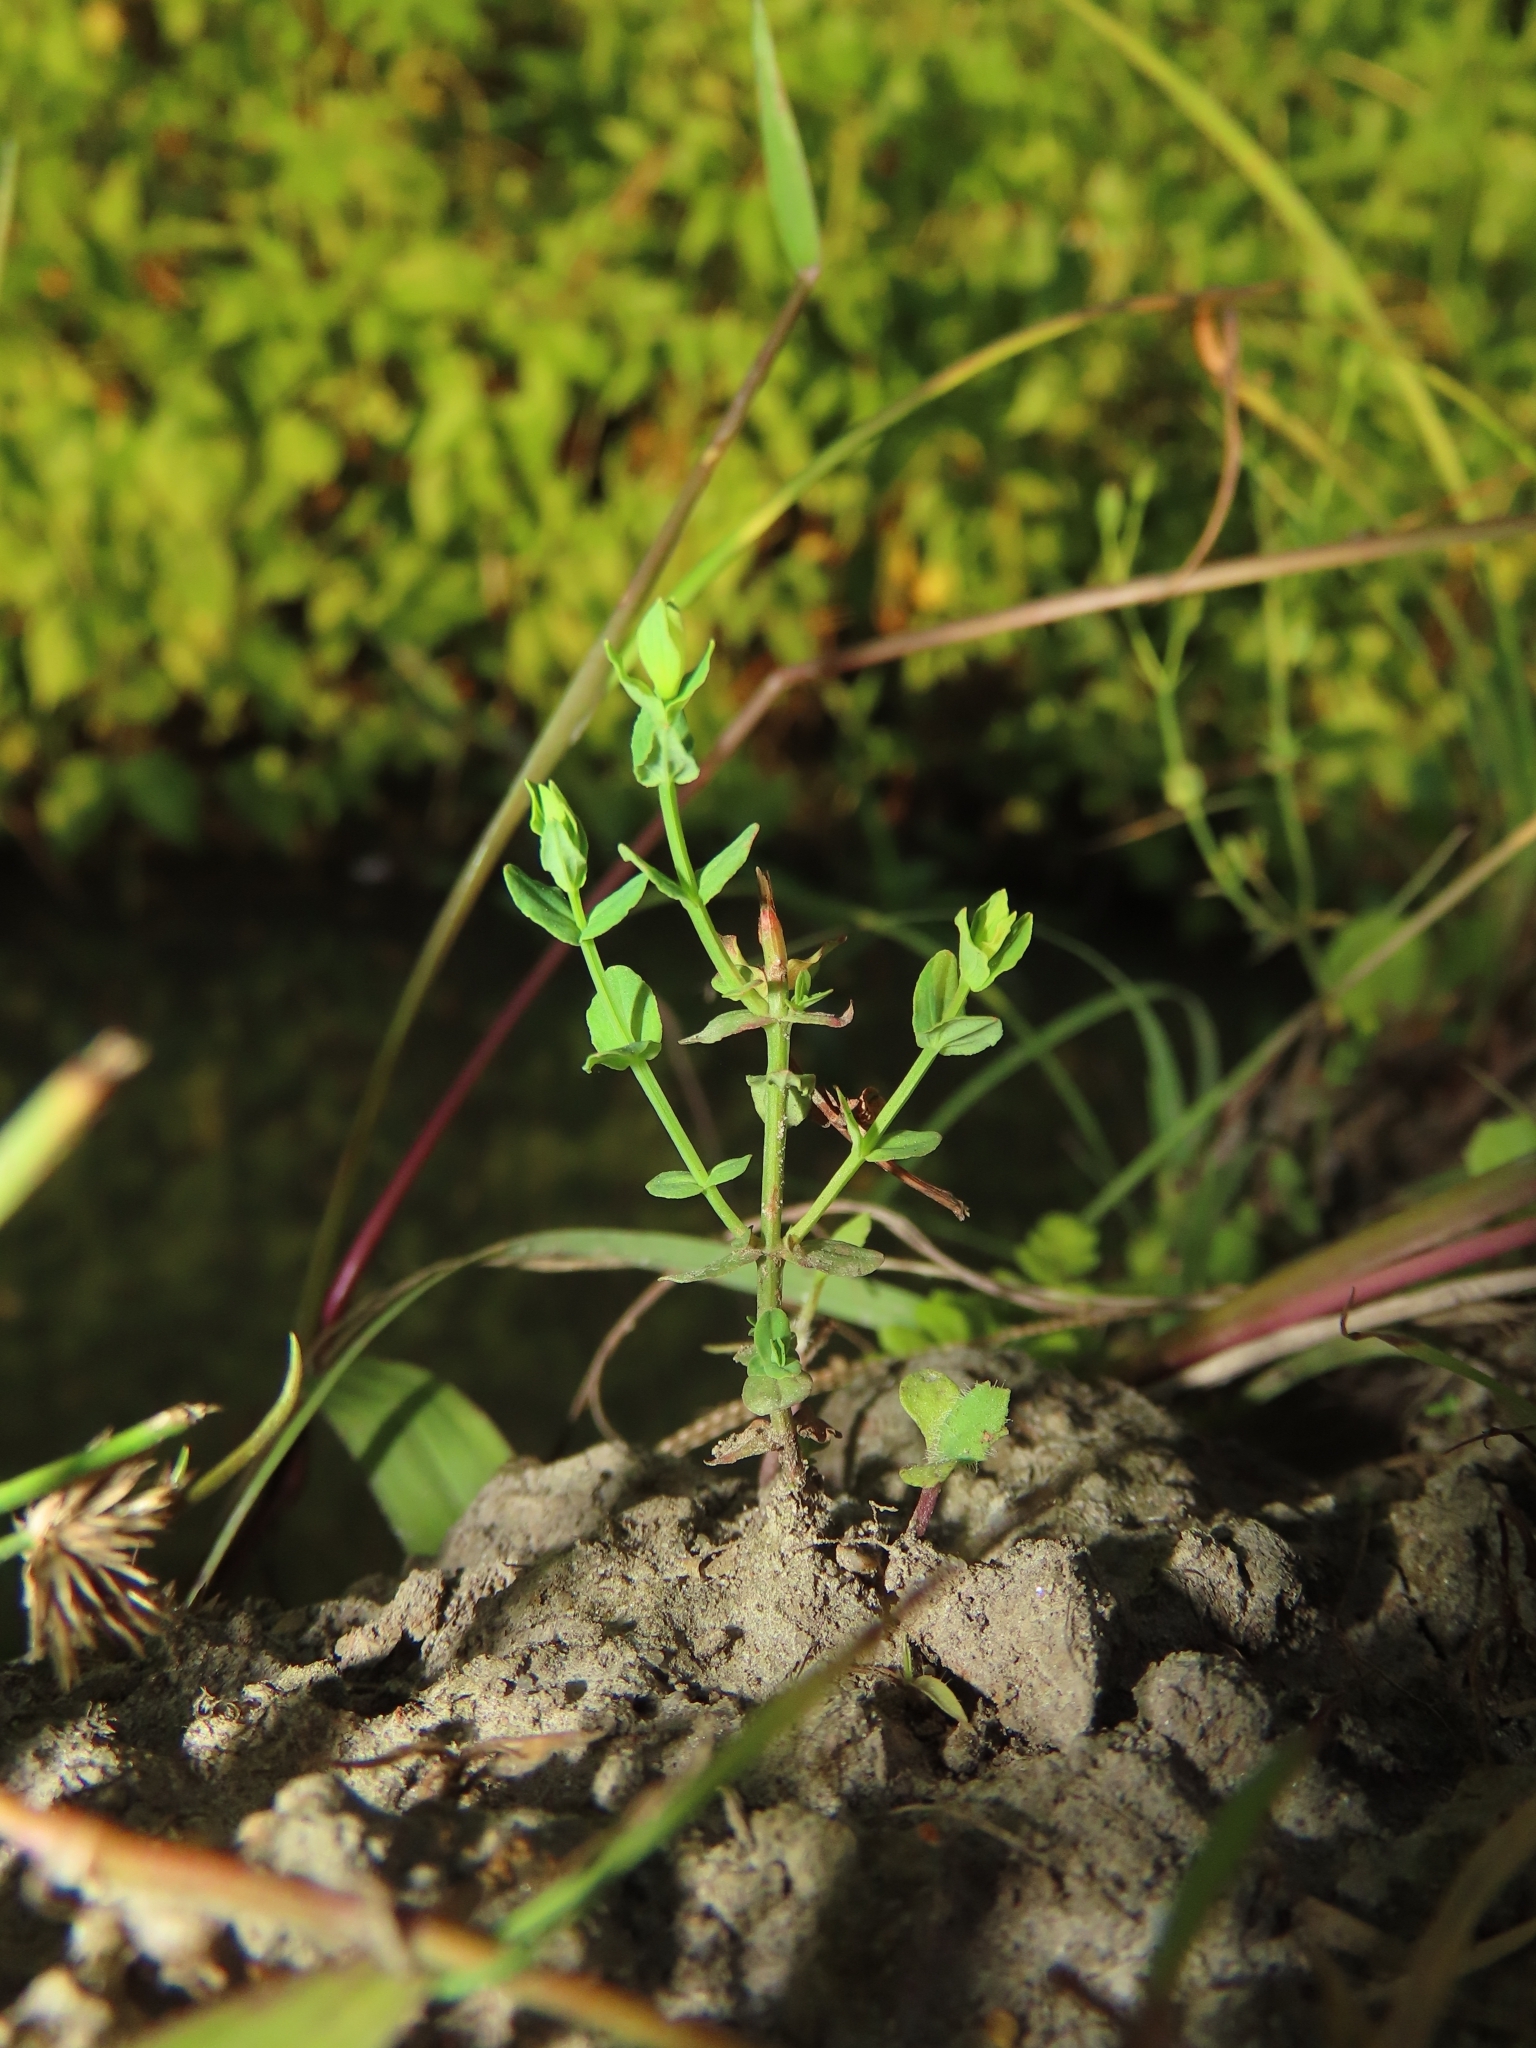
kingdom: Plantae
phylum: Tracheophyta
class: Magnoliopsida
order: Malpighiales
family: Hypericaceae
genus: Hypericum
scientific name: Hypericum japonicum
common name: Matted st. john's-wort
